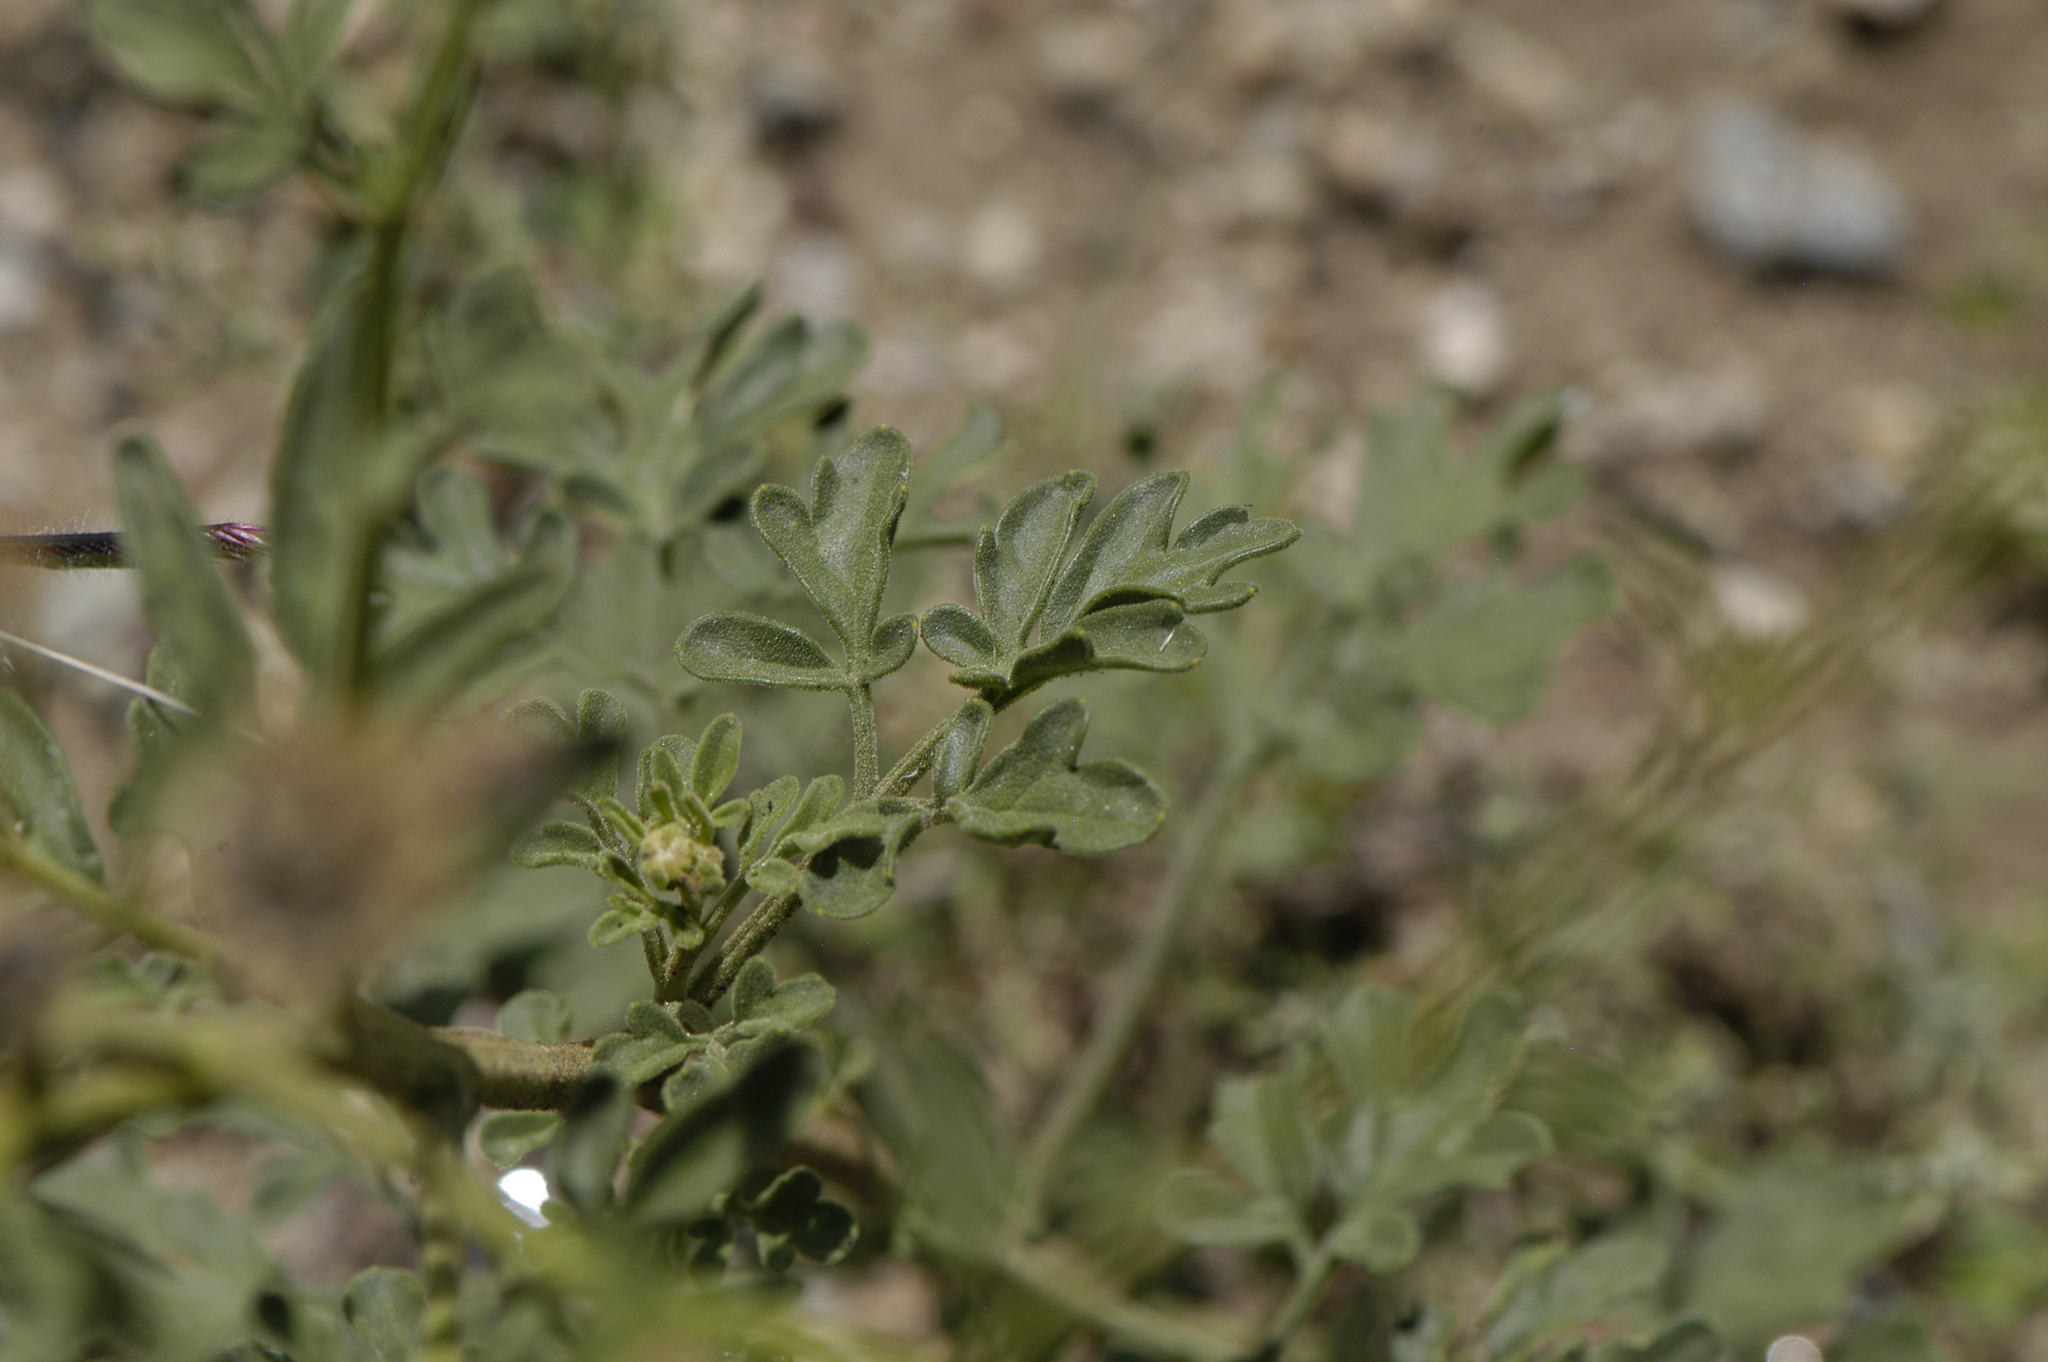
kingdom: Plantae
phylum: Tracheophyta
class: Magnoliopsida
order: Asterales
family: Asteraceae
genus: Hymenothrix
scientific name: Hymenothrix dissecta
